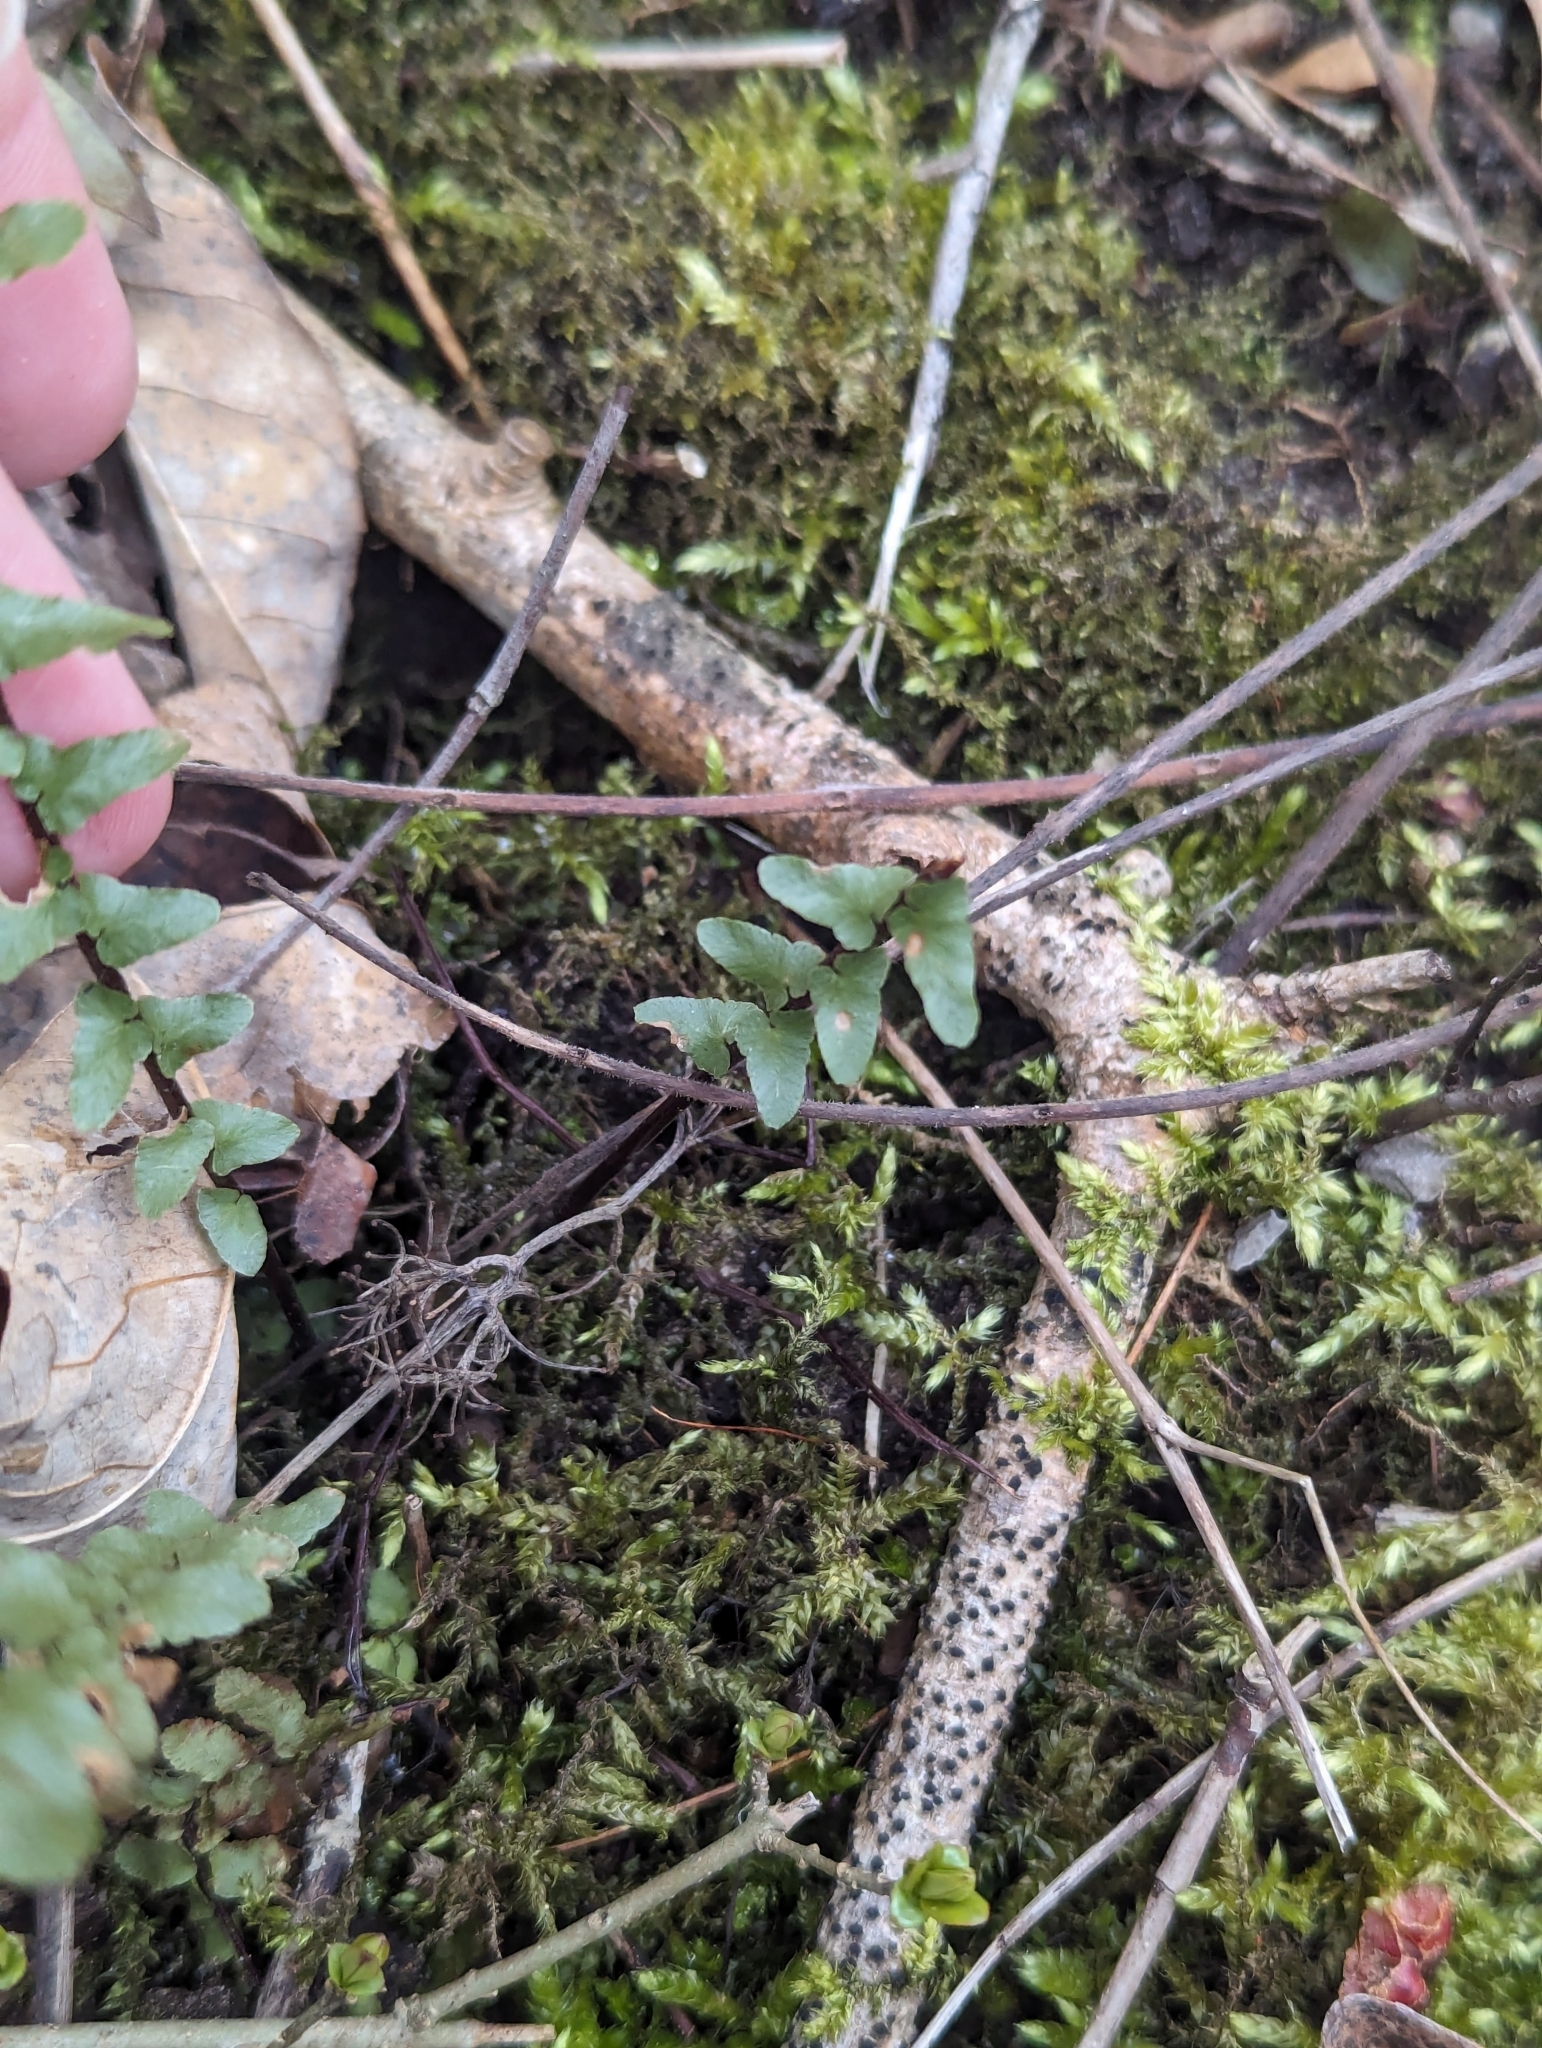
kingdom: Plantae
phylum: Tracheophyta
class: Polypodiopsida
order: Polypodiales
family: Aspleniaceae
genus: Asplenium
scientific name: Asplenium platyneuron
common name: Ebony spleenwort
